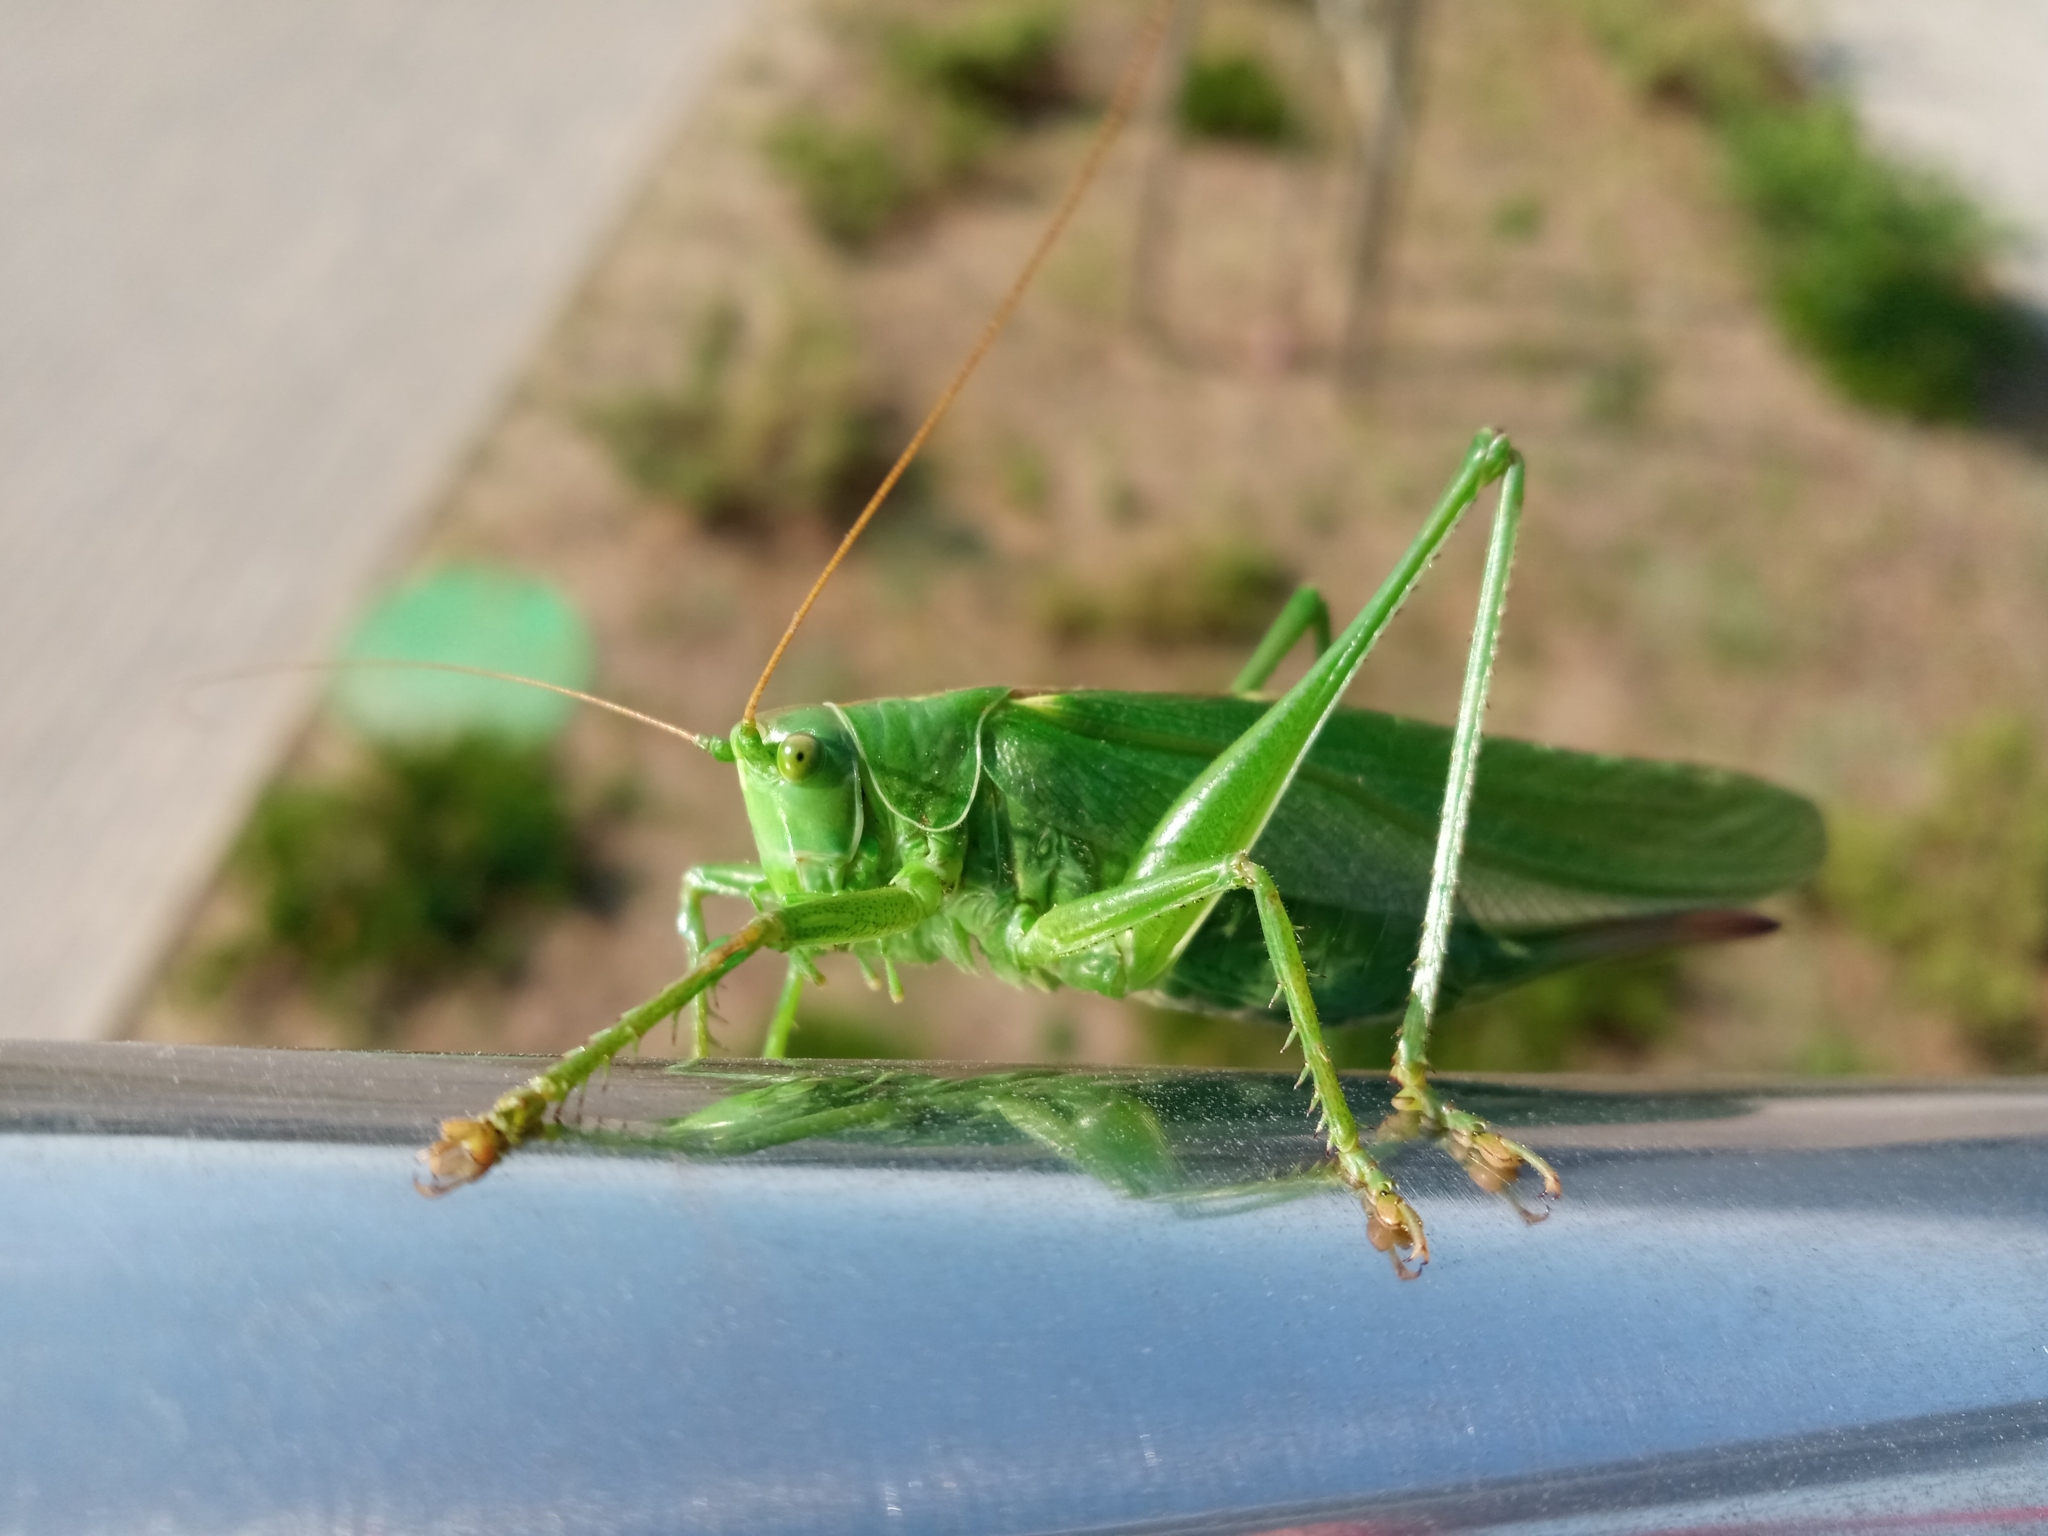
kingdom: Animalia
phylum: Arthropoda
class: Insecta
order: Orthoptera
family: Tettigoniidae
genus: Tettigonia
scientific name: Tettigonia viridissima
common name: Great green bush-cricket
